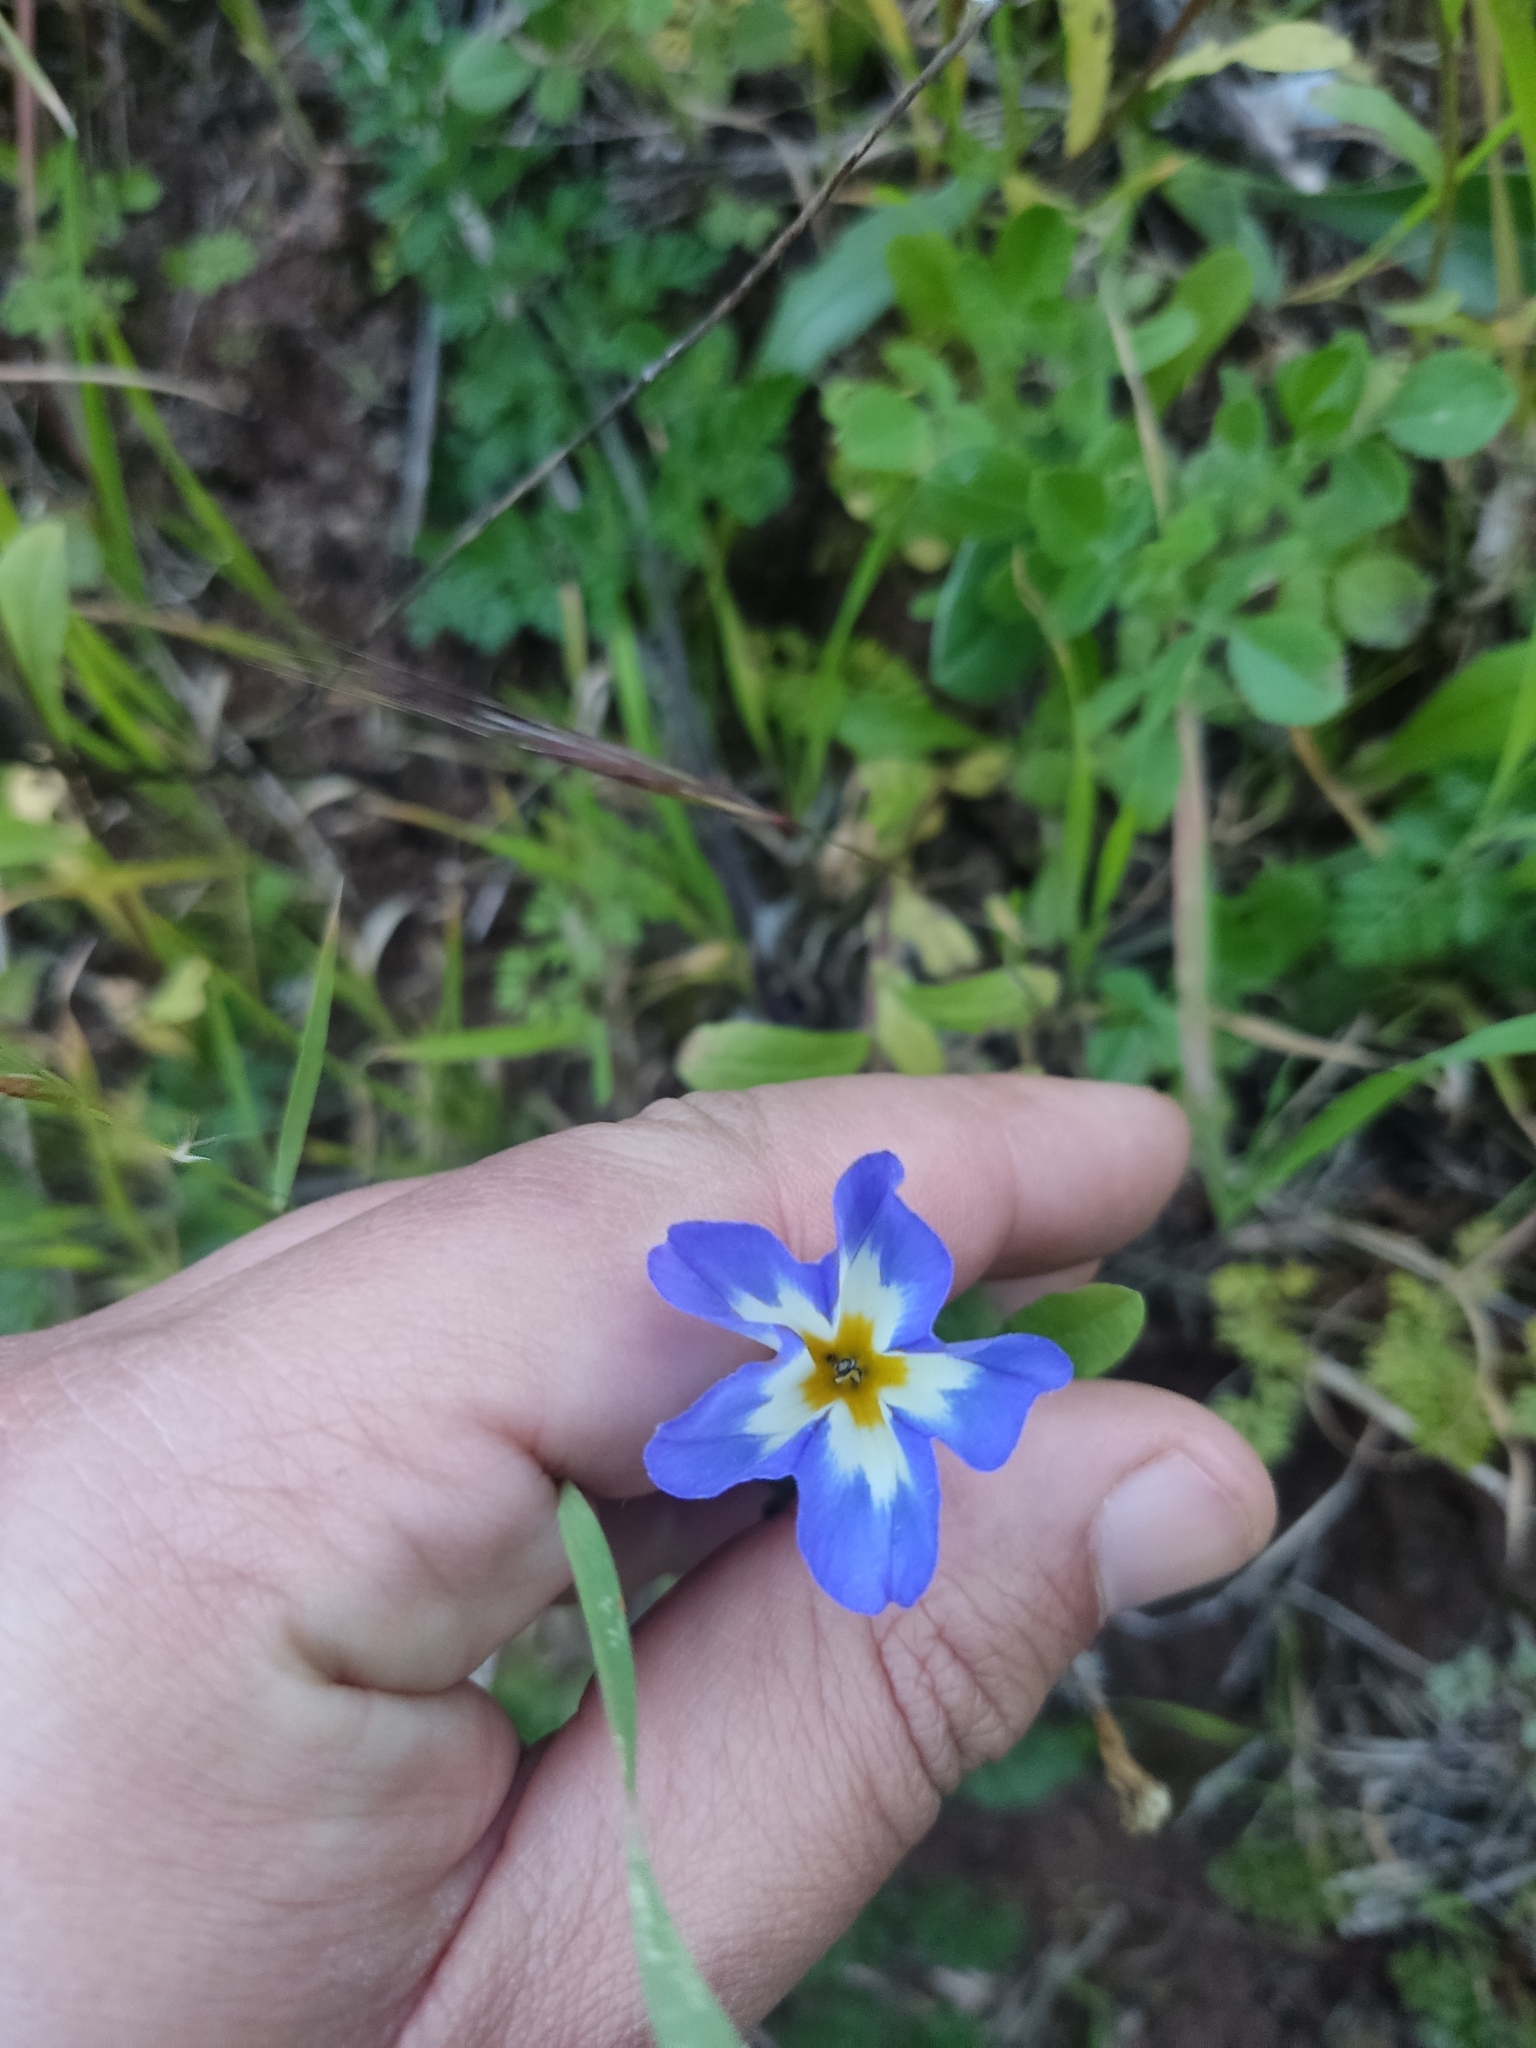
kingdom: Plantae
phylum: Tracheophyta
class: Magnoliopsida
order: Solanales
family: Convolvulaceae
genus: Convolvulus
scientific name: Convolvulus tricolor
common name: Dwarf morning-glory
